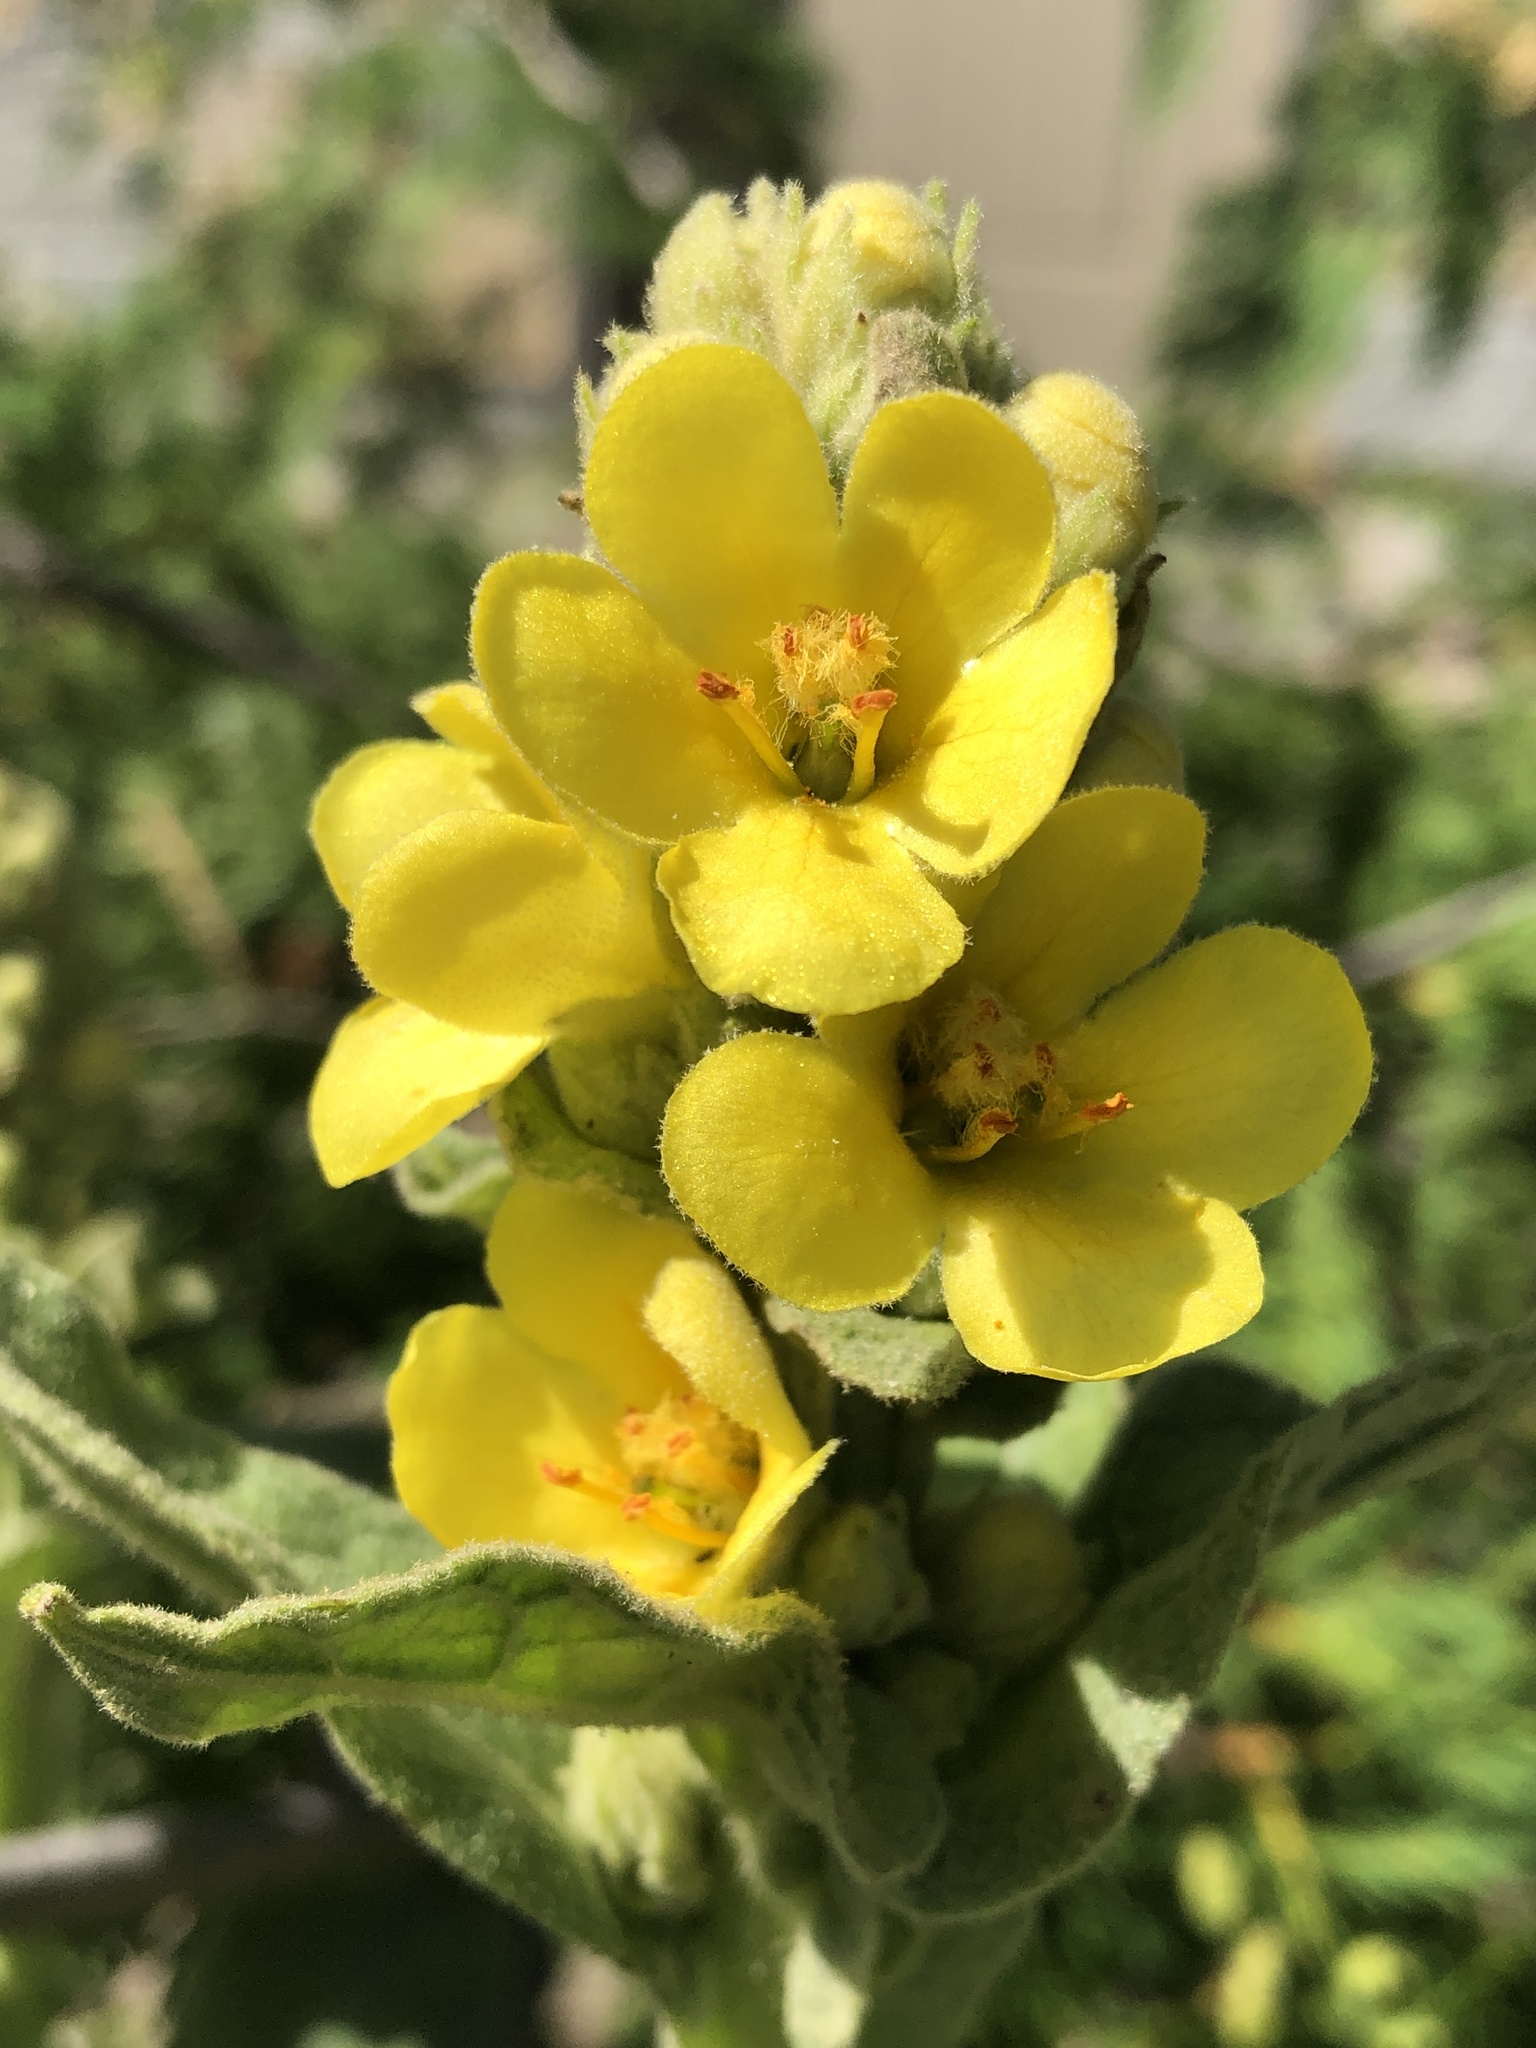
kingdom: Plantae
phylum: Tracheophyta
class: Magnoliopsida
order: Lamiales
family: Scrophulariaceae
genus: Verbascum
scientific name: Verbascum thapsus
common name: Common mullein
